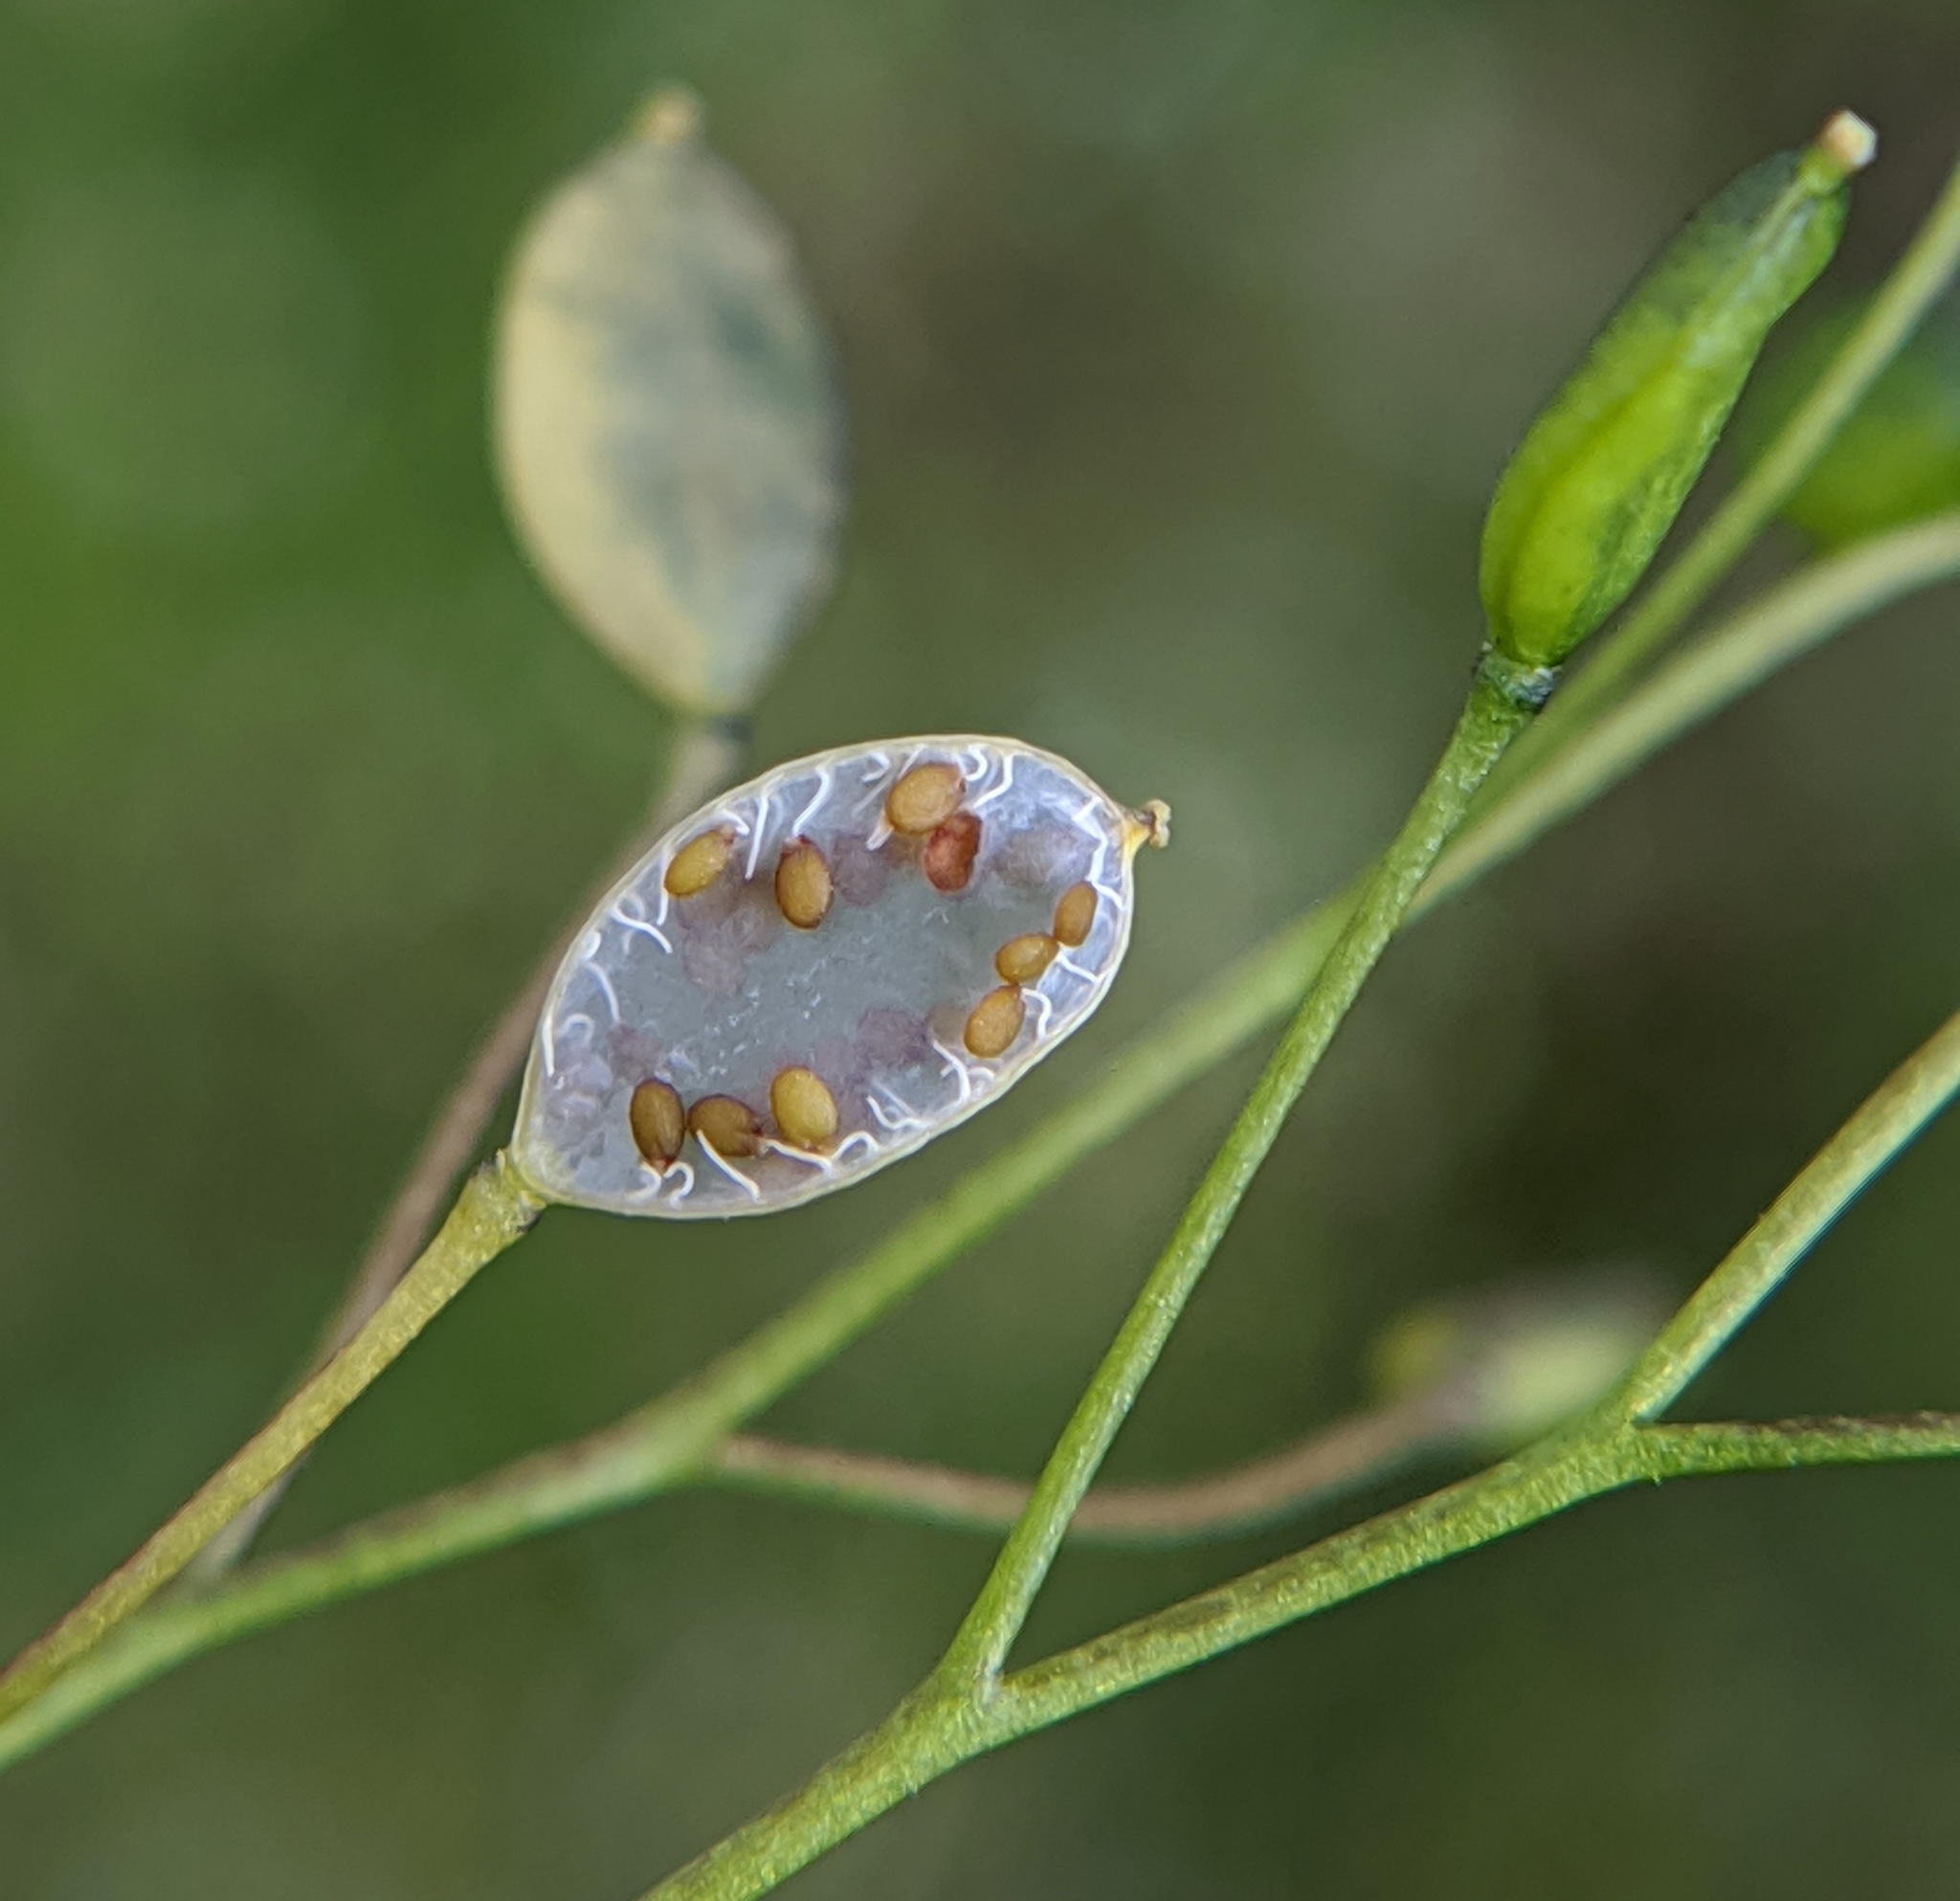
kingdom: Plantae
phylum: Tracheophyta
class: Magnoliopsida
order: Brassicales
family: Brassicaceae
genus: Draba
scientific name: Draba verna
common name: Spring draba
